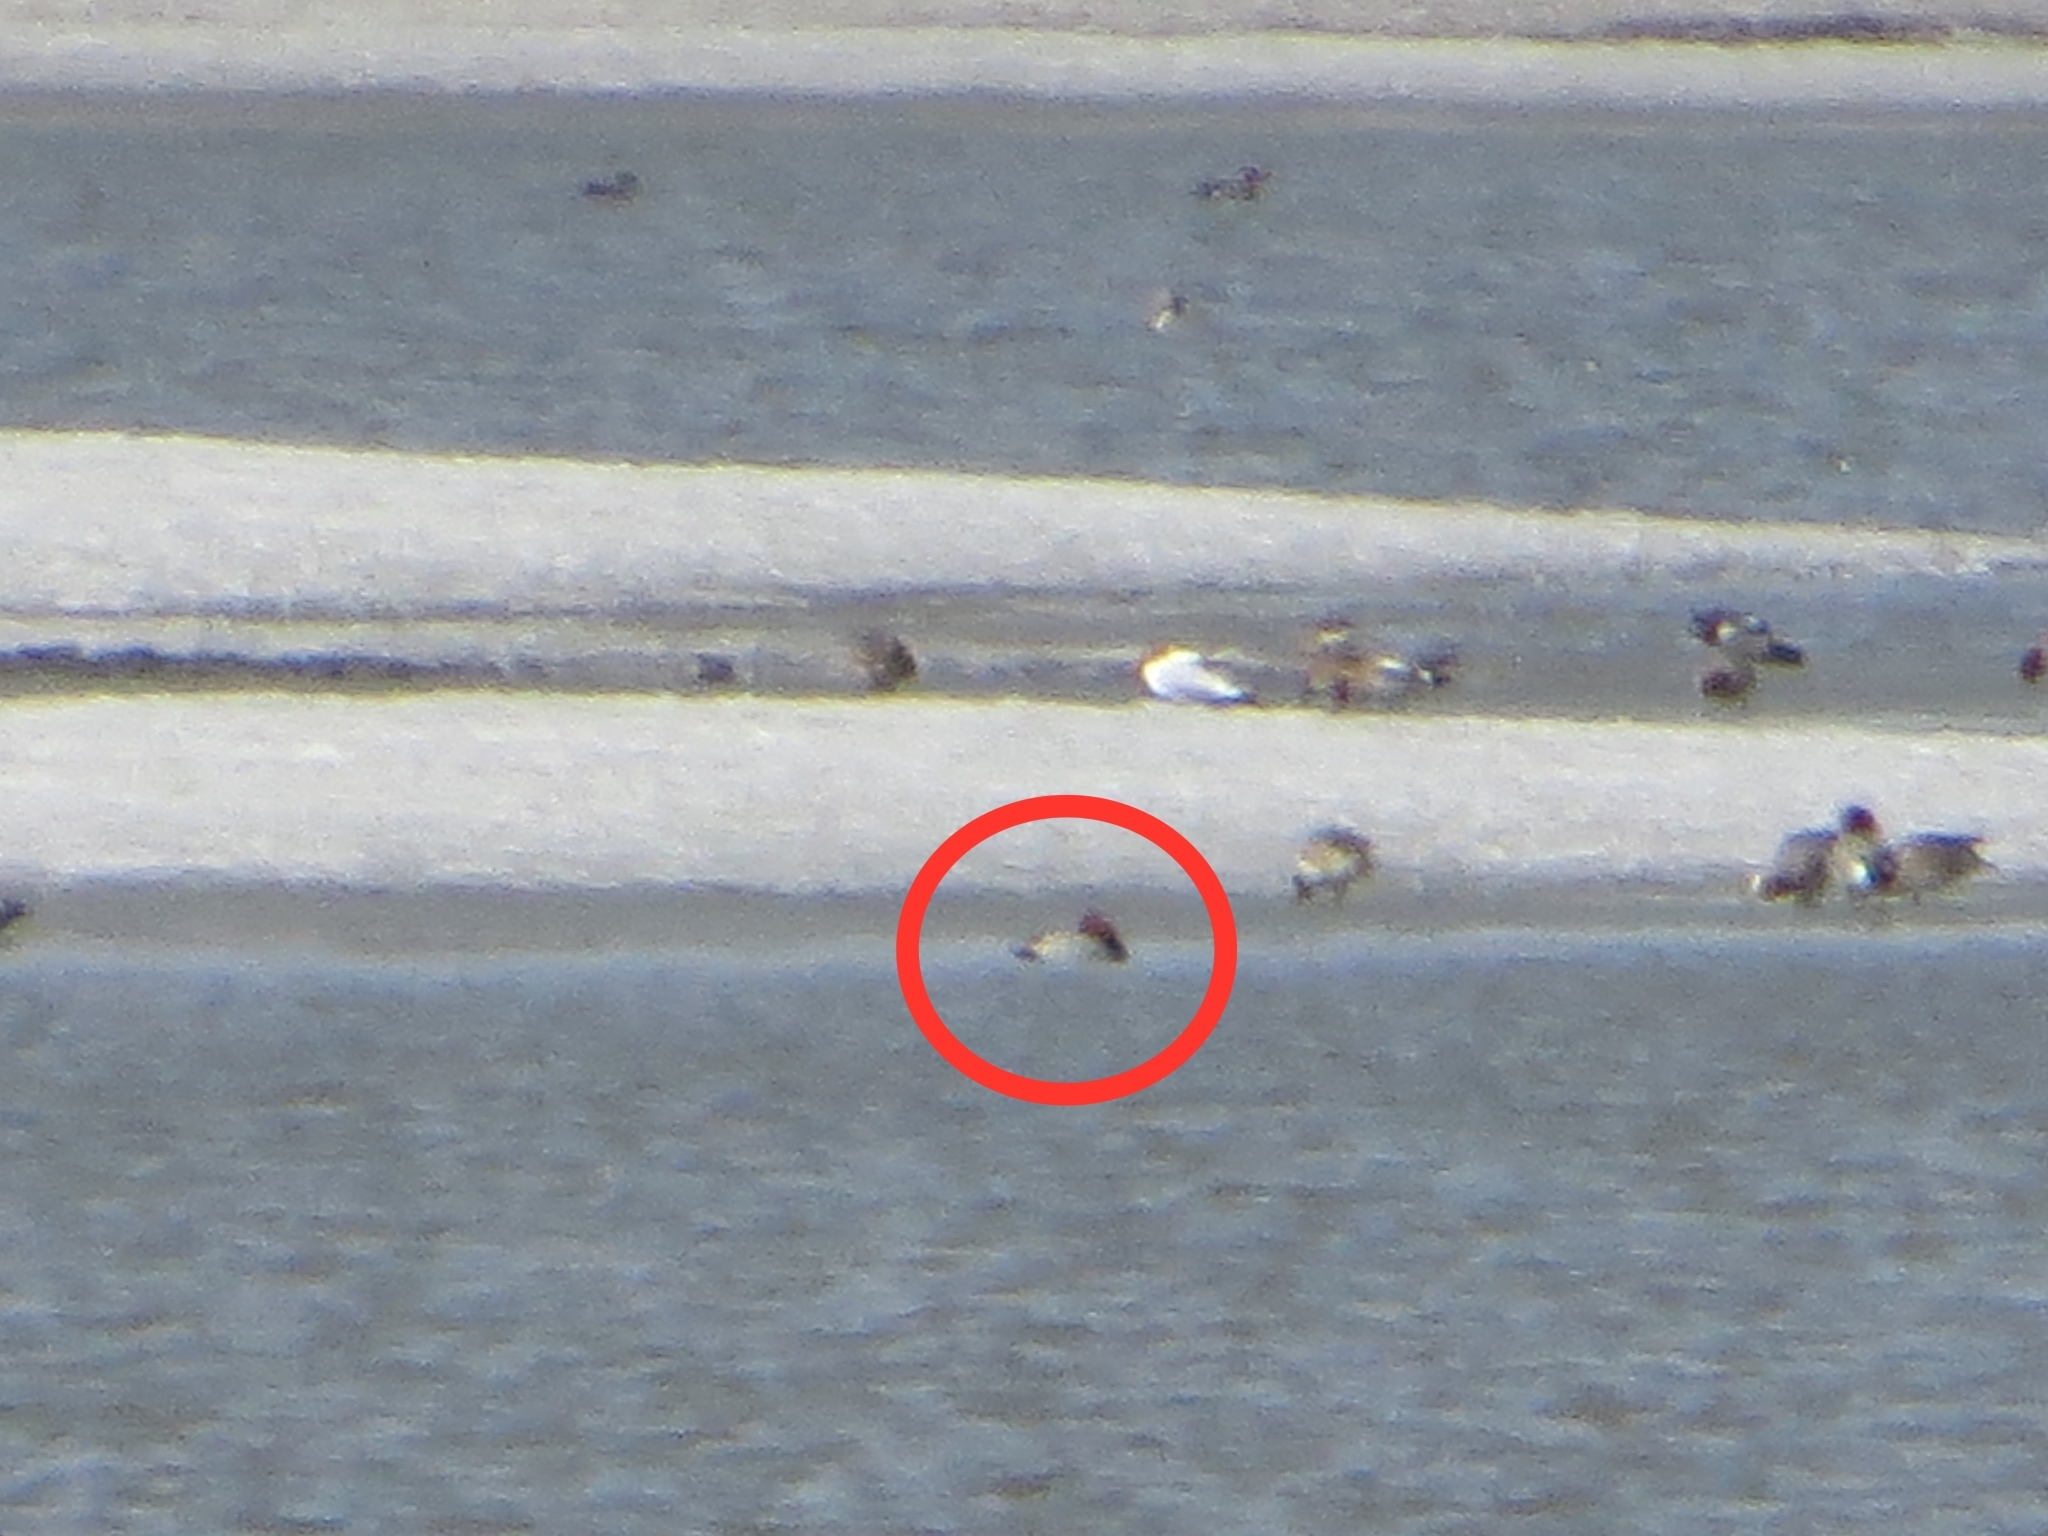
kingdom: Animalia
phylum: Chordata
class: Aves
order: Anseriformes
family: Anatidae
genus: Aythya
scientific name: Aythya ferina
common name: Common pochard
